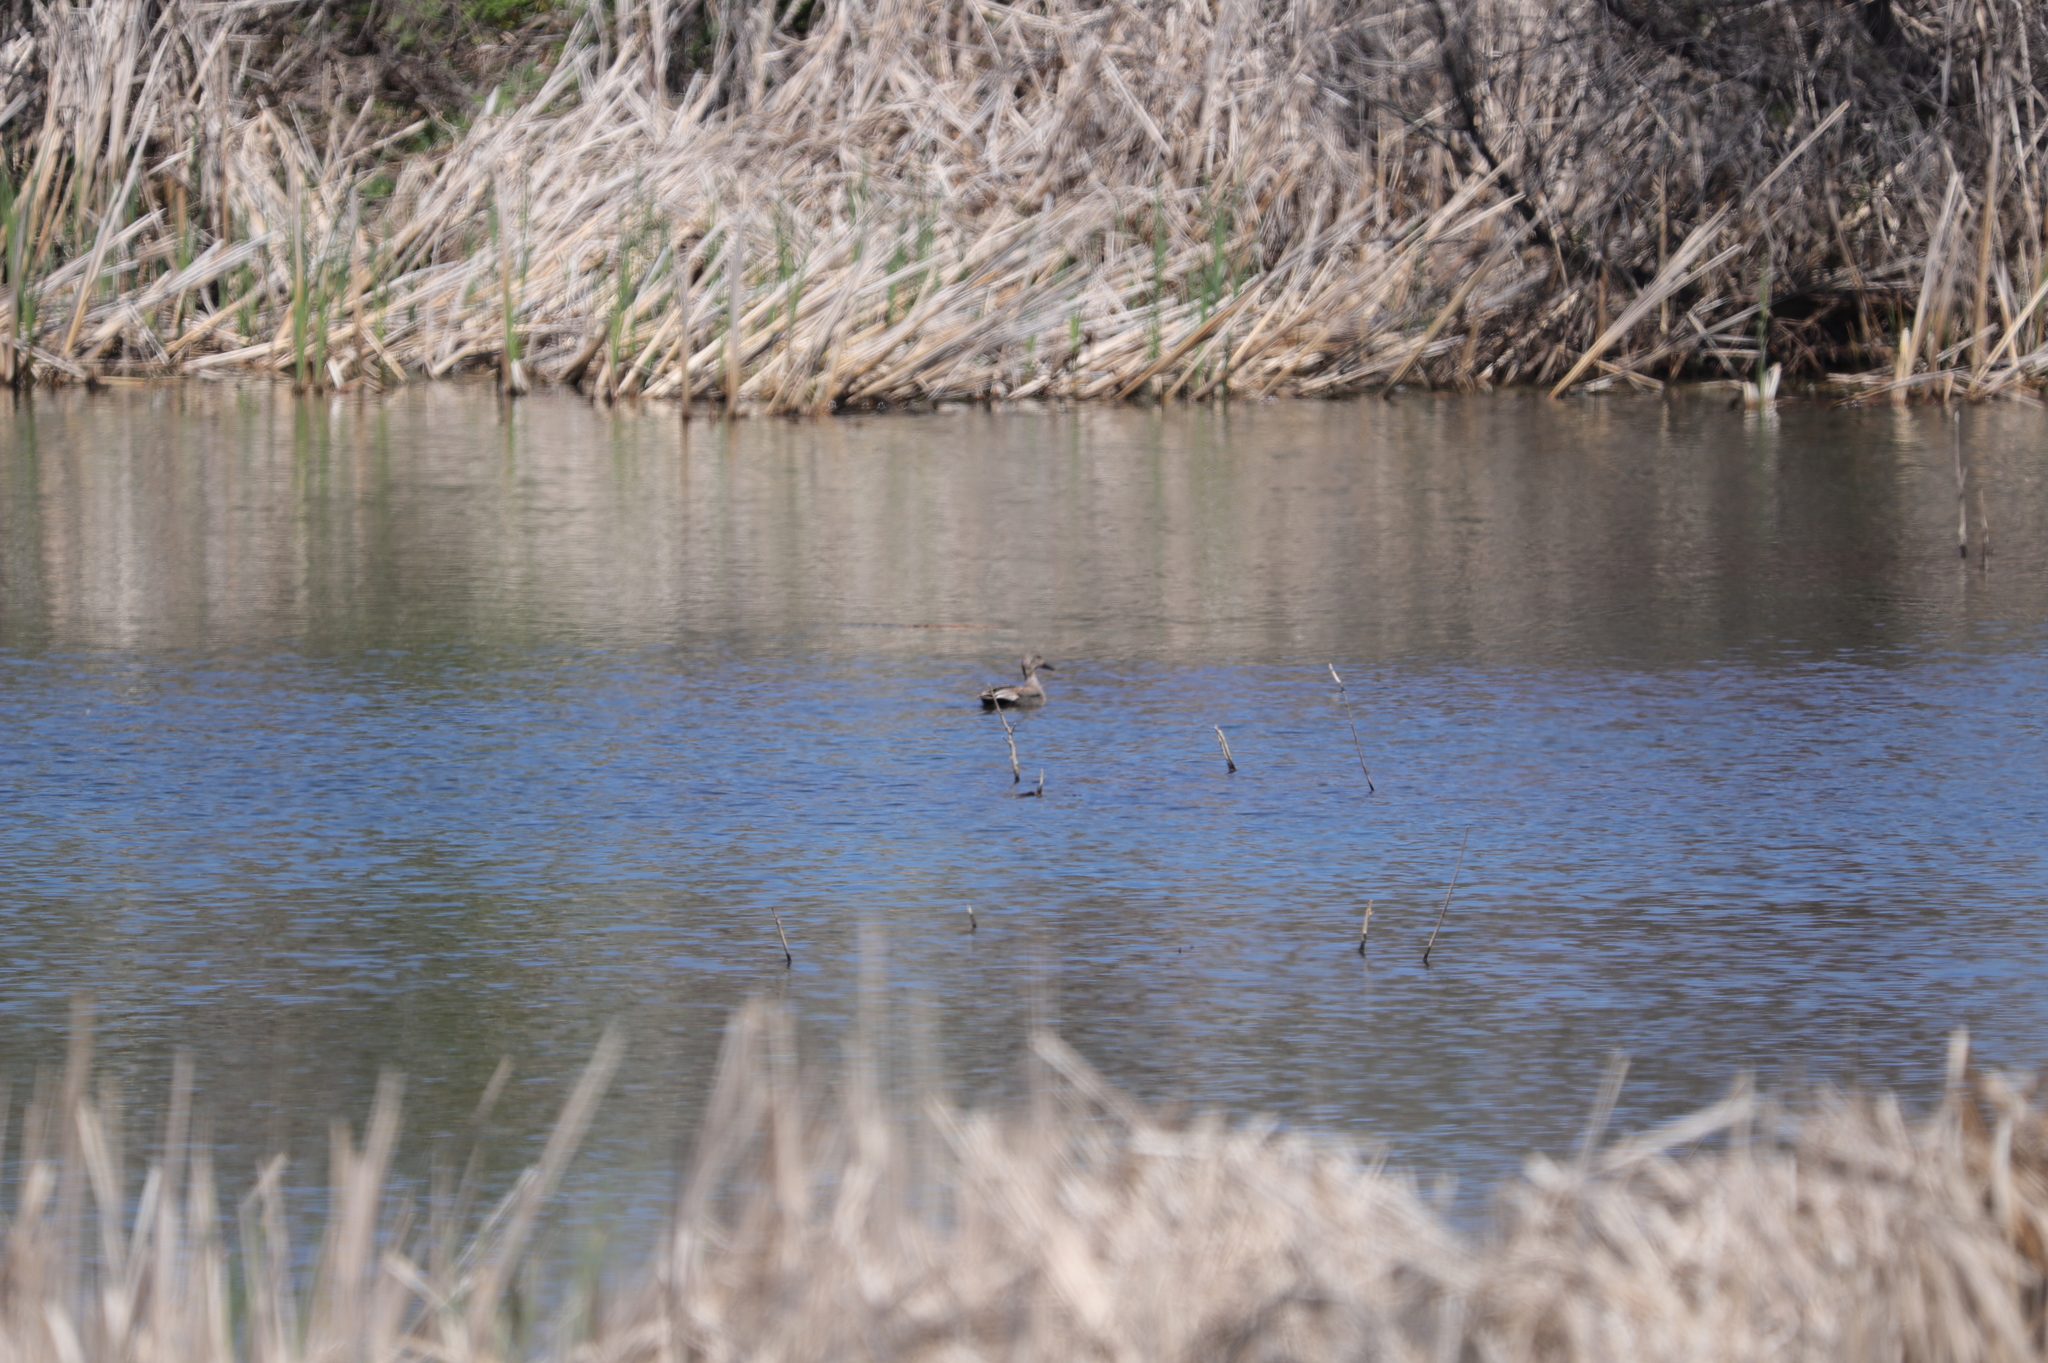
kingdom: Animalia
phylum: Chordata
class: Aves
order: Anseriformes
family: Anatidae
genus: Mareca
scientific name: Mareca strepera
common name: Gadwall
